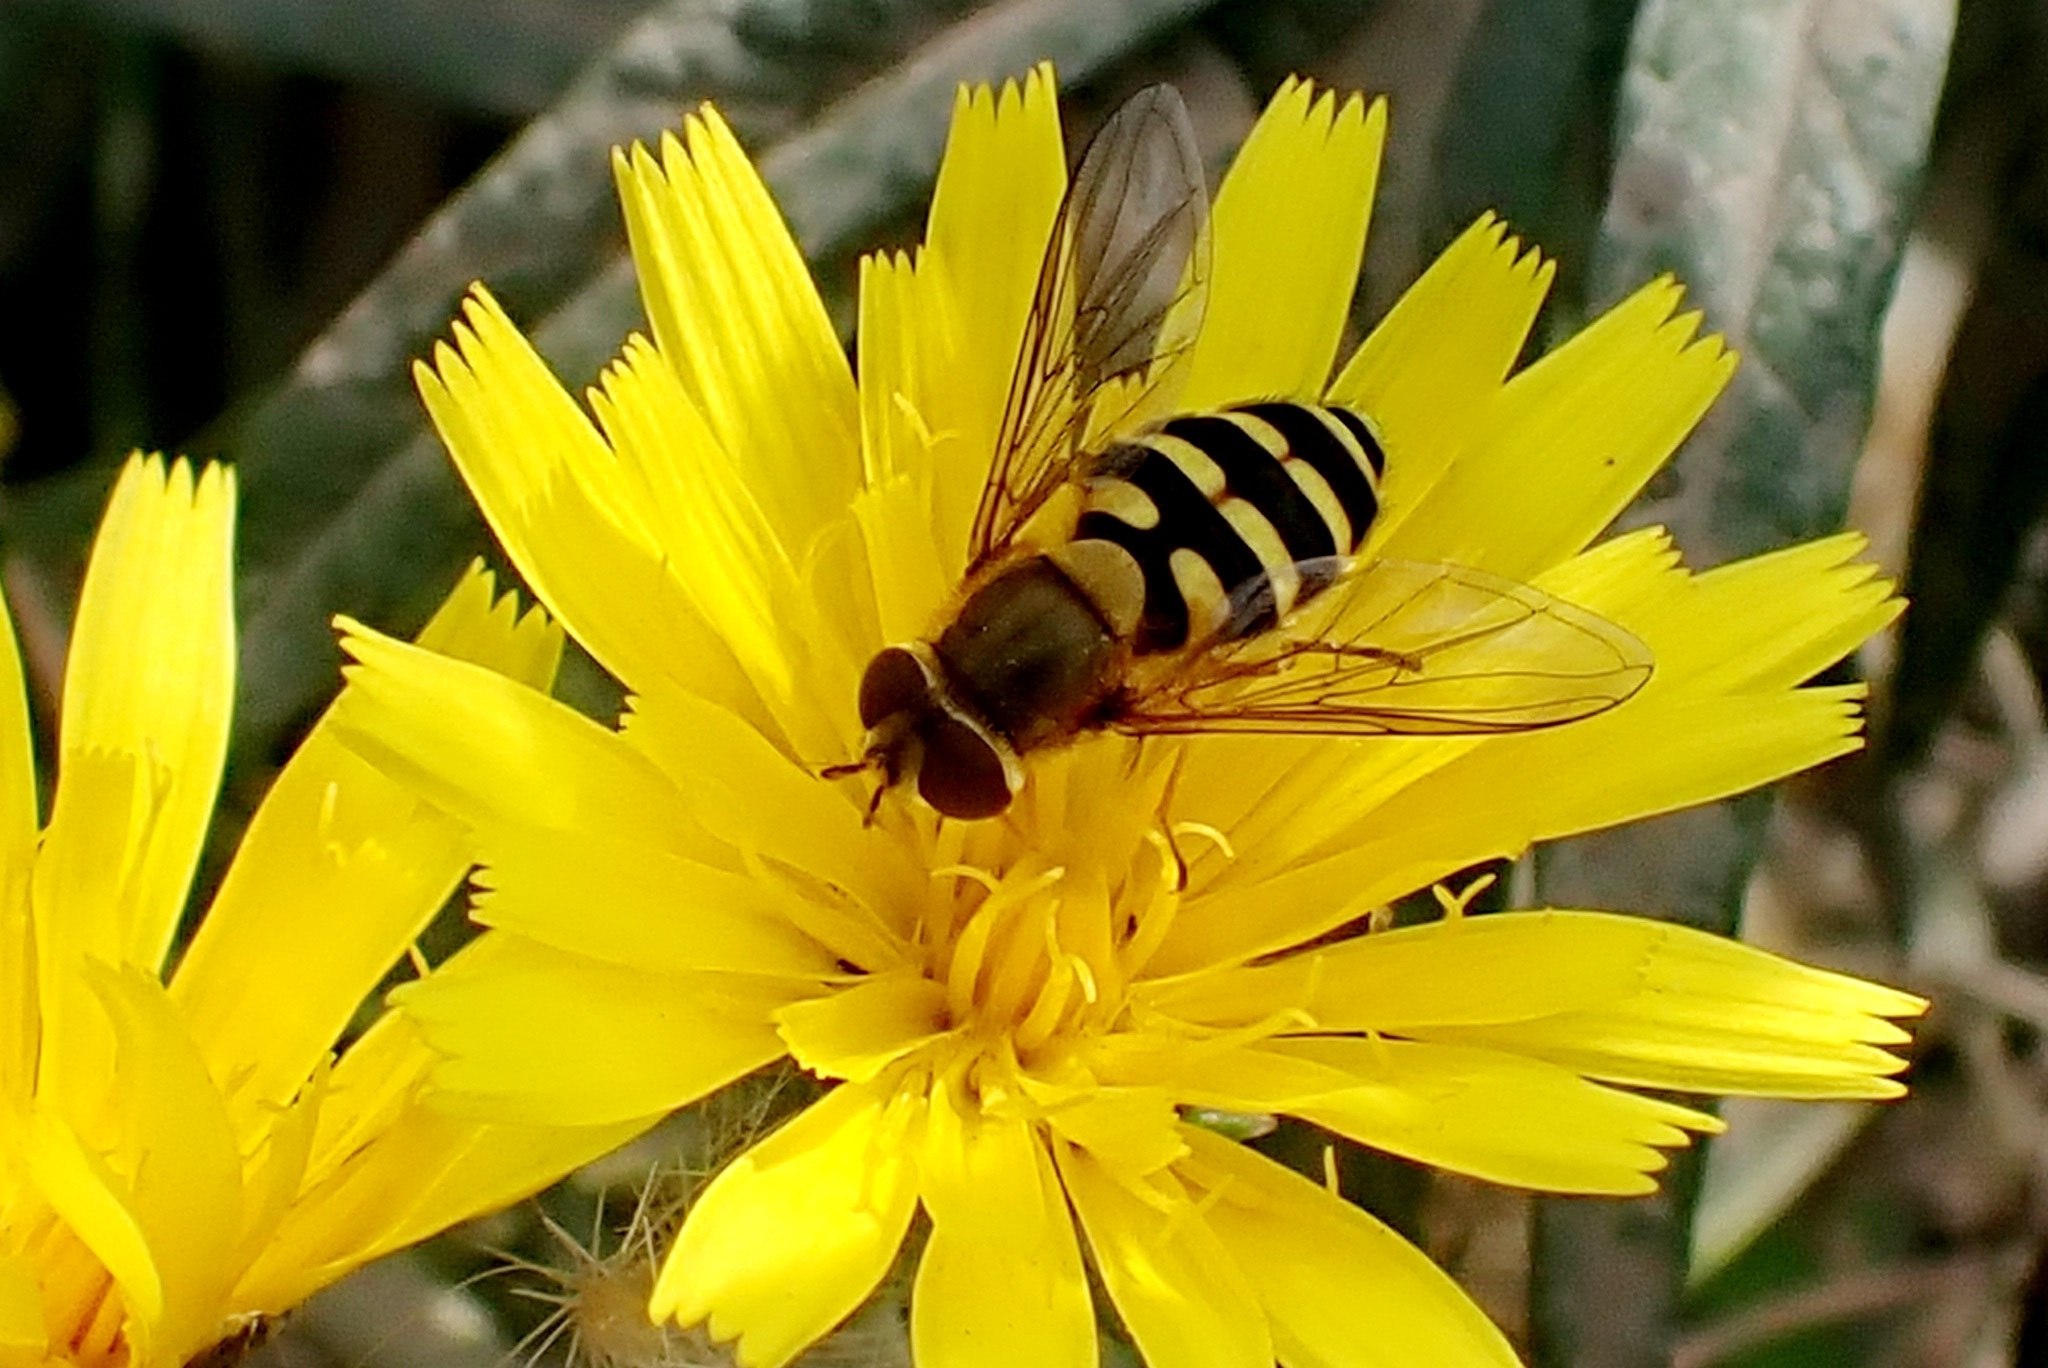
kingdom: Animalia
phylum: Arthropoda
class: Insecta
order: Diptera
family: Syrphidae
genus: Syrphus
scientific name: Syrphus ribesii
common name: Common flower fly
